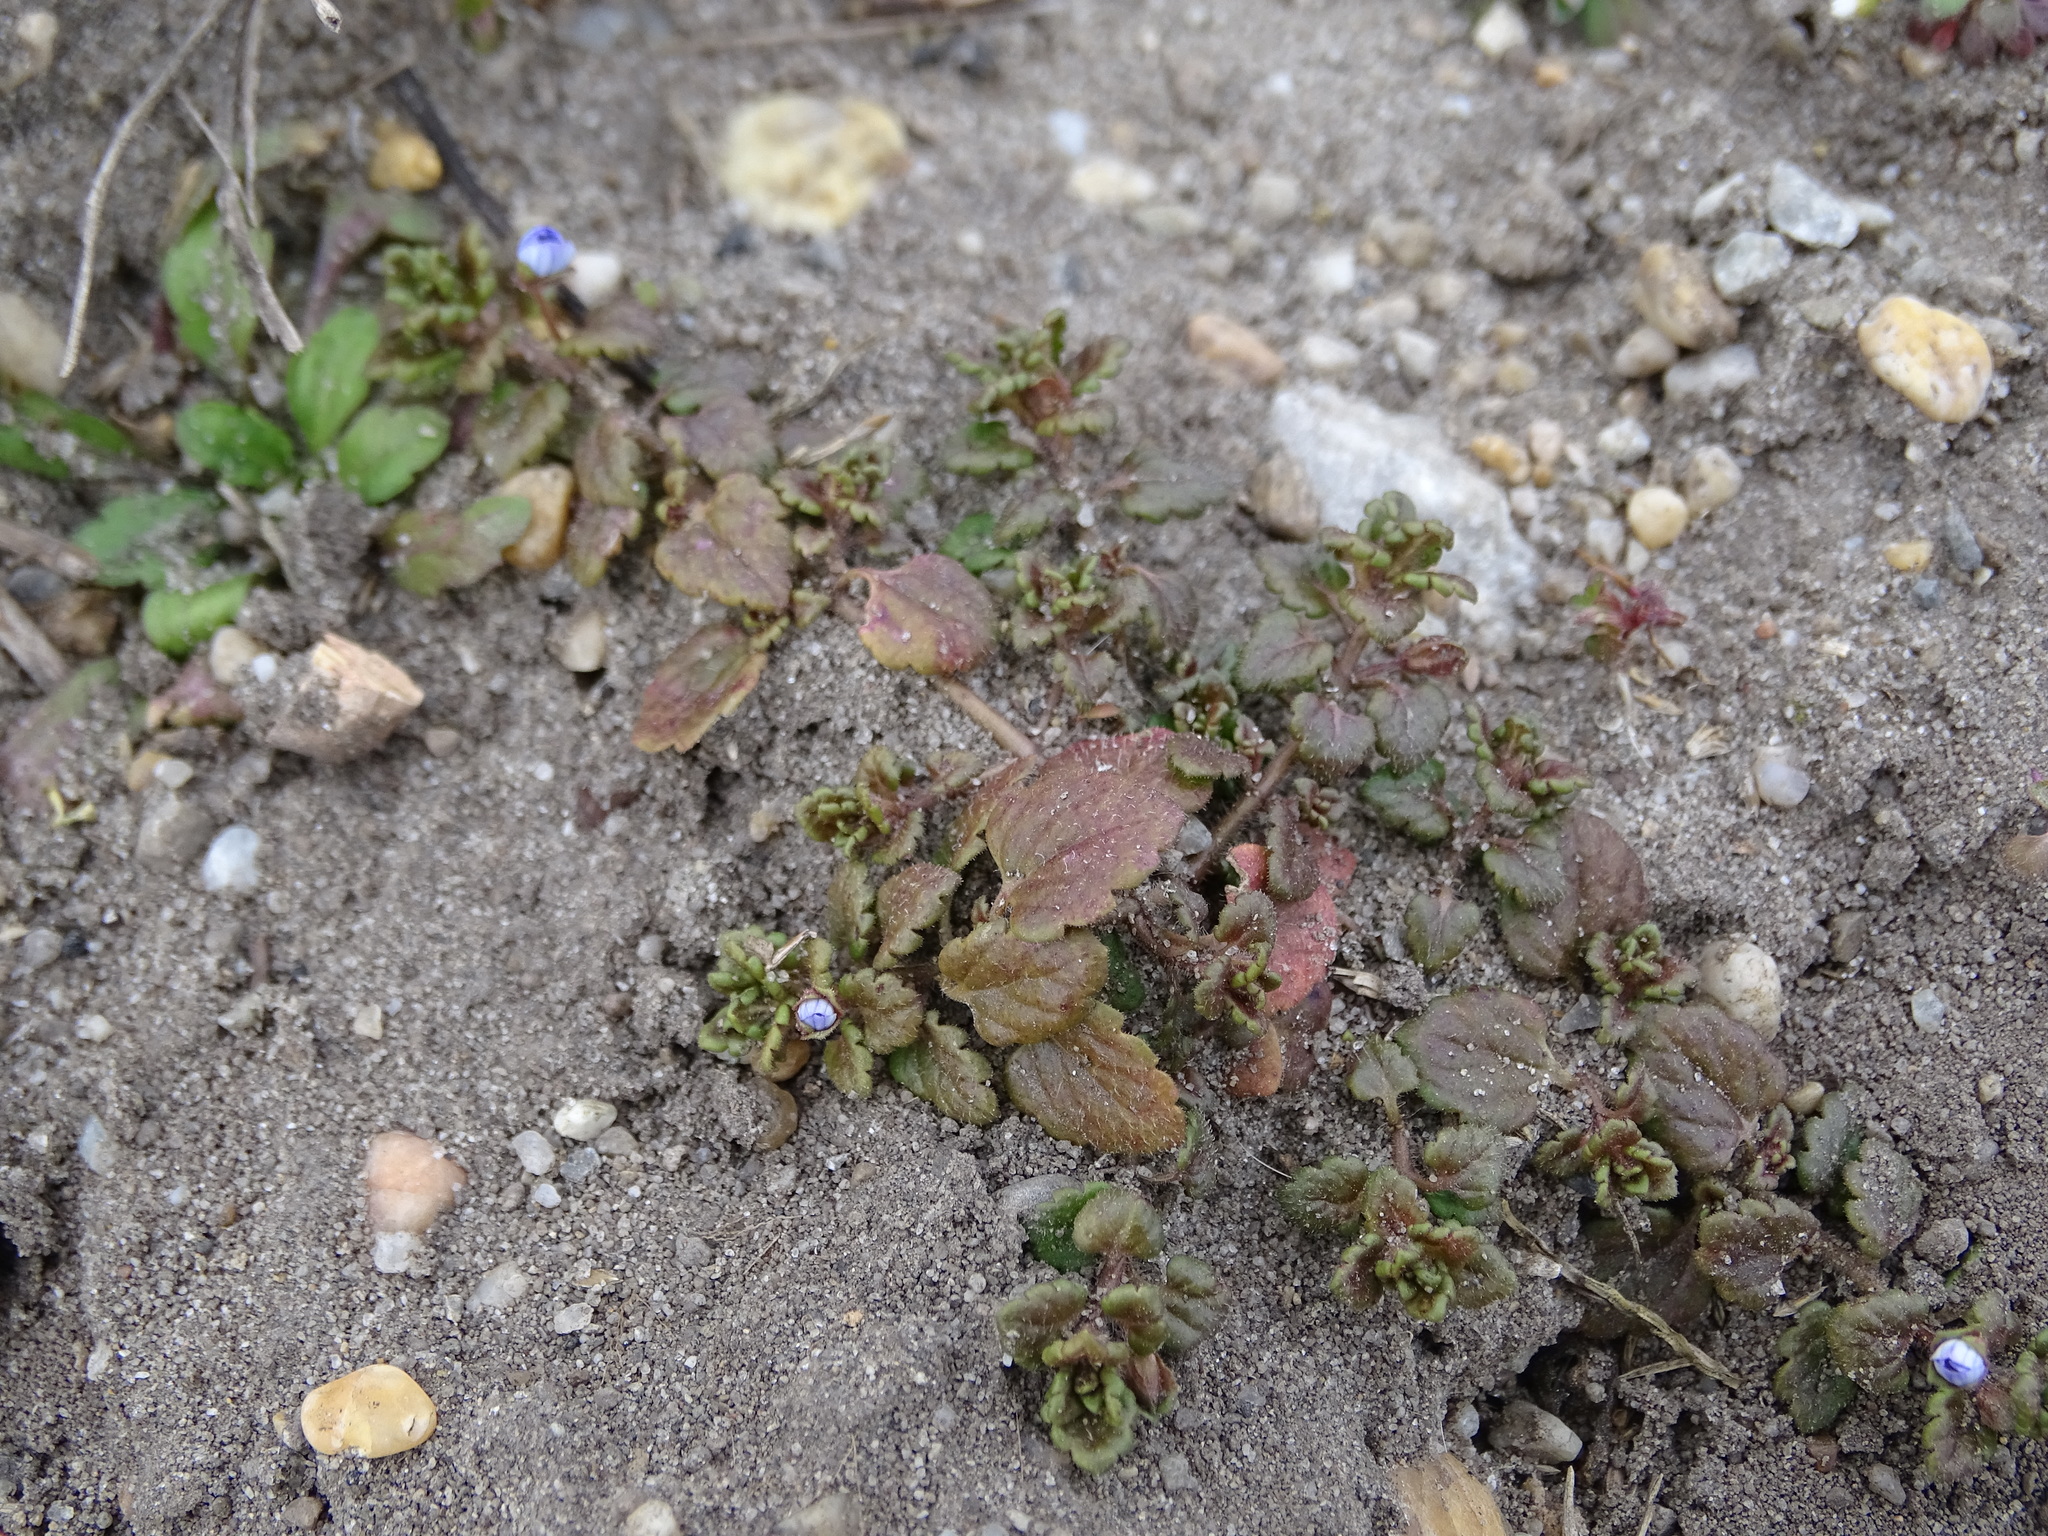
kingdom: Plantae
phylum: Tracheophyta
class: Magnoliopsida
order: Lamiales
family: Plantaginaceae
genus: Veronica
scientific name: Veronica polita
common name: Grey field-speedwell
